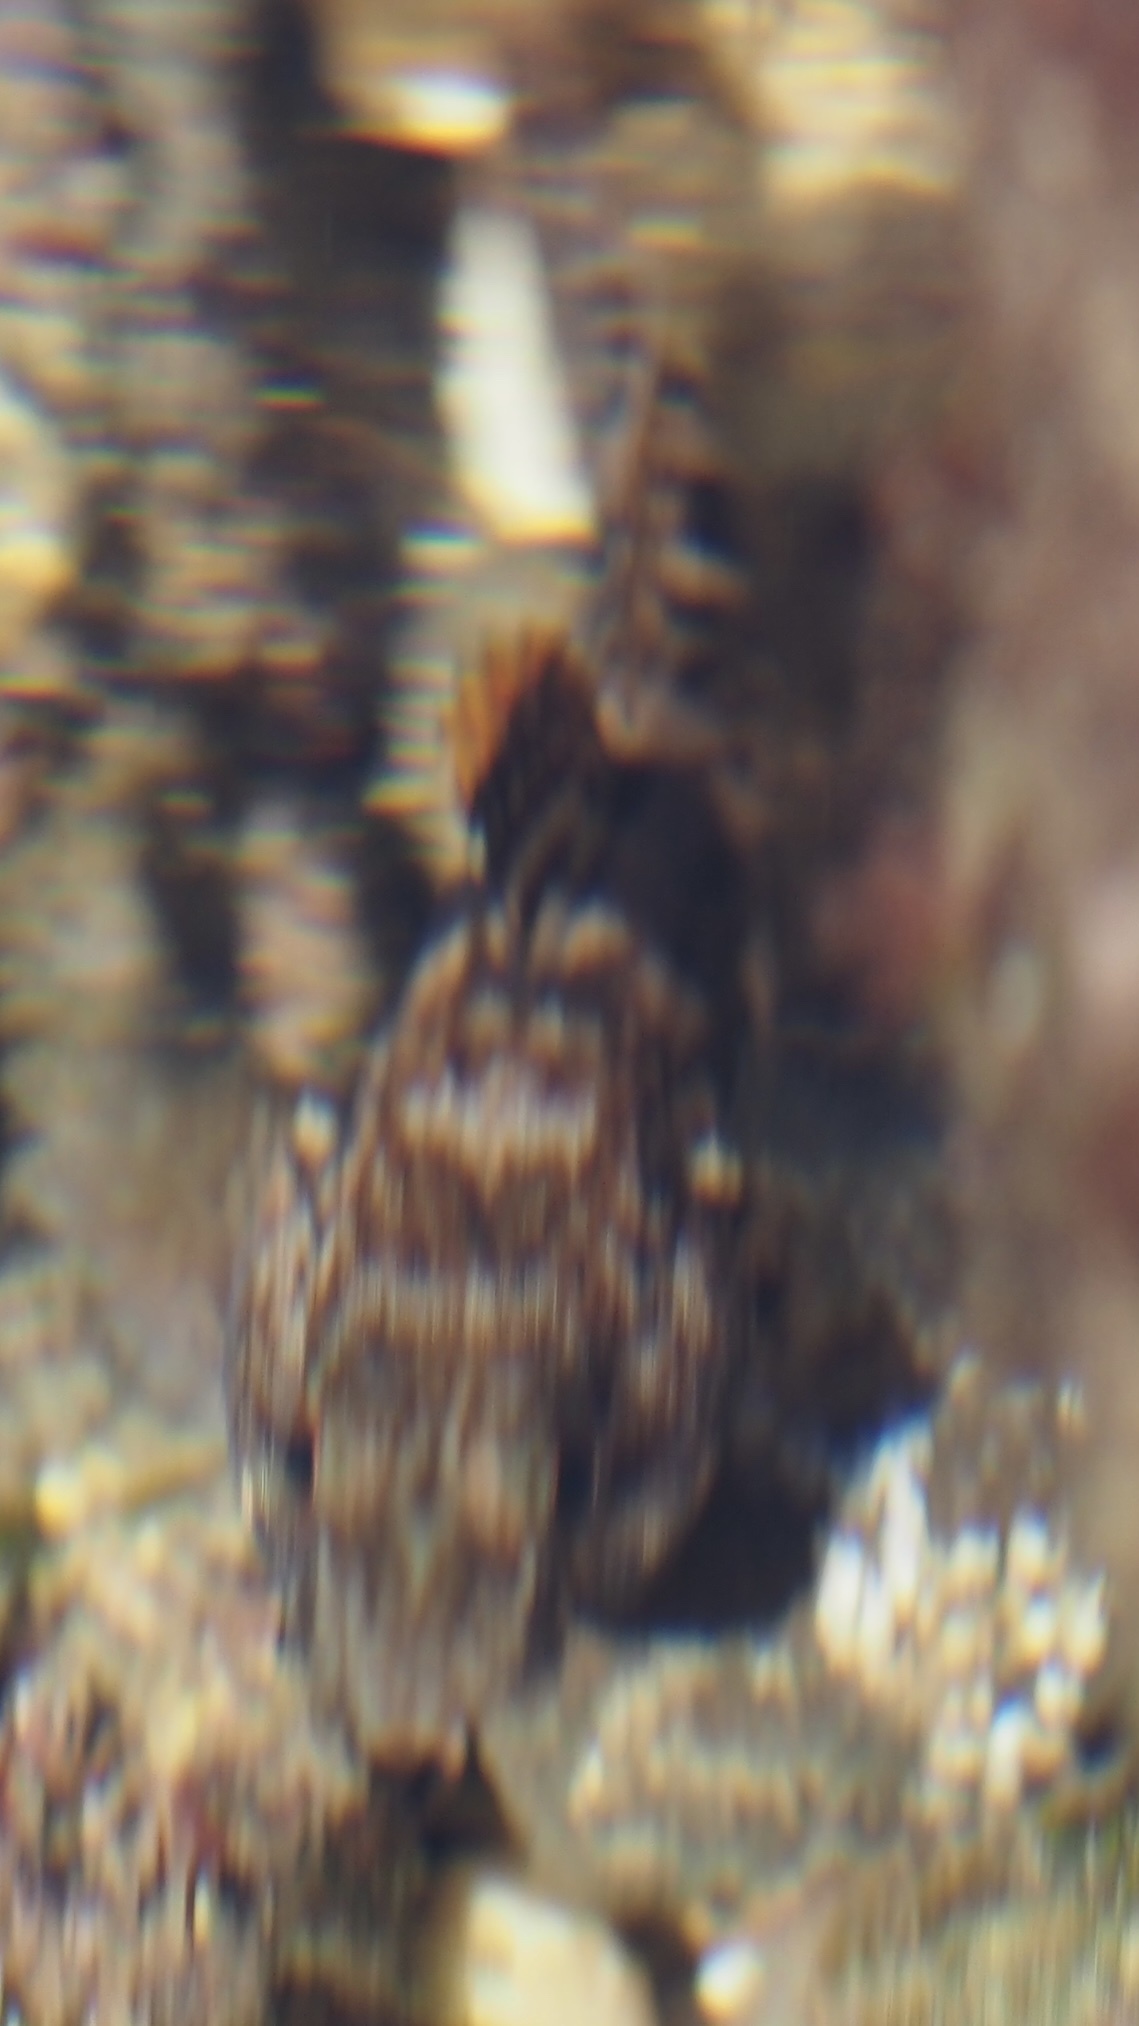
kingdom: Animalia
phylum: Chordata
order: Perciformes
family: Gobiidae
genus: Gobius
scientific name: Gobius paganellus
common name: Rock goby
